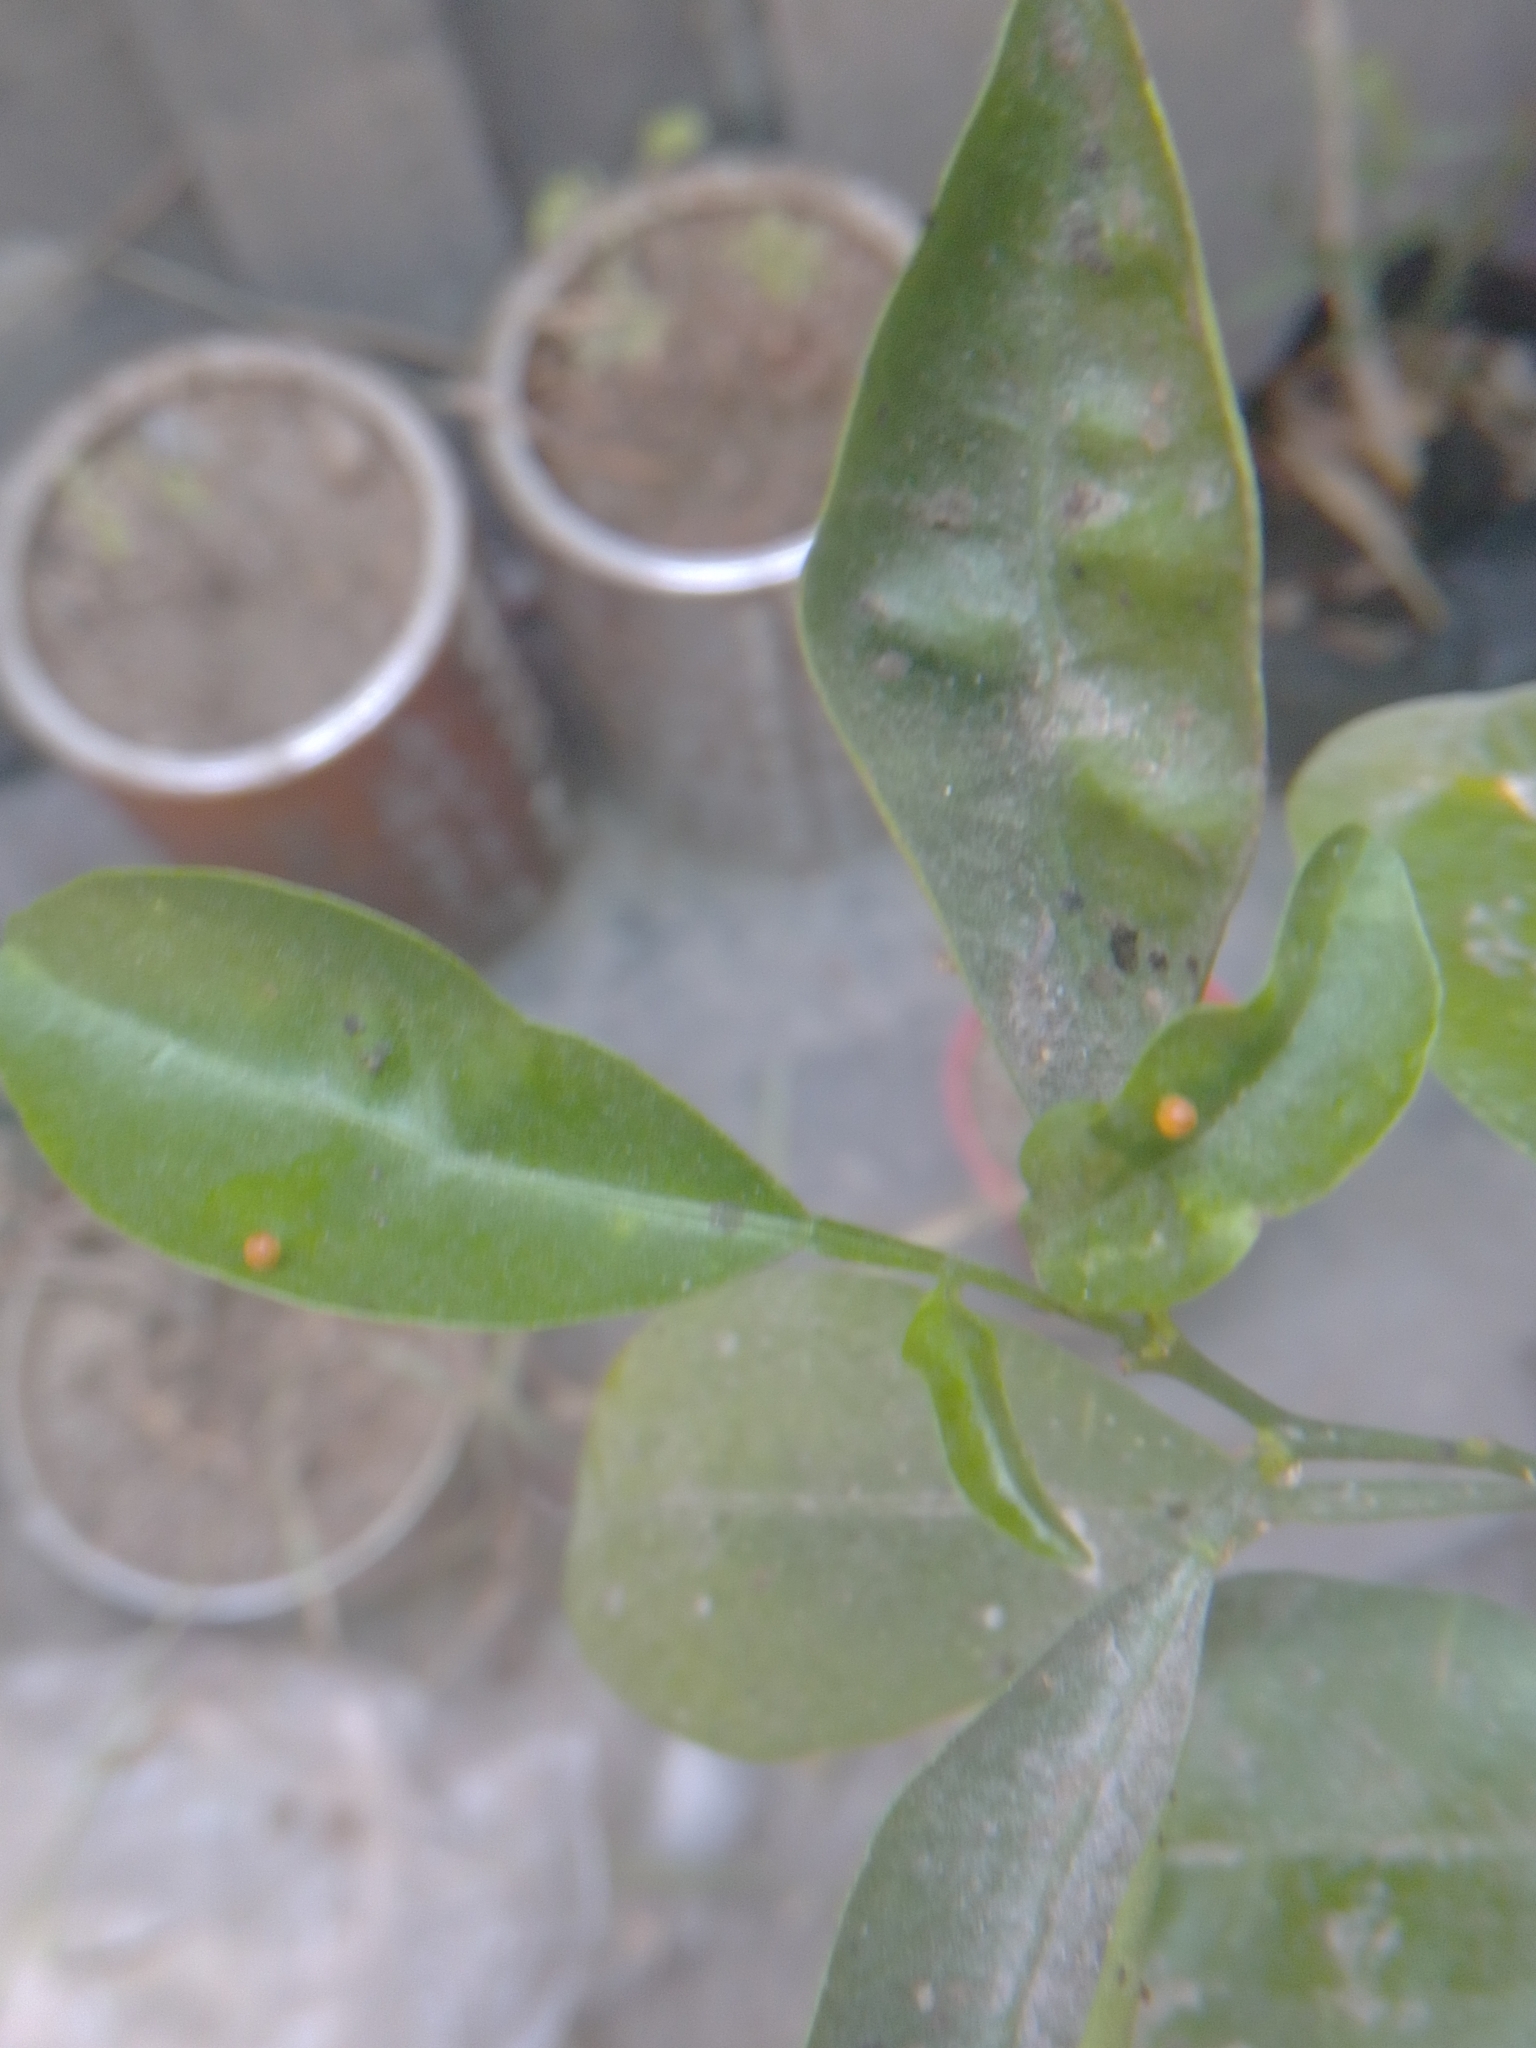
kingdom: Animalia
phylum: Arthropoda
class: Insecta
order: Lepidoptera
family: Papilionidae
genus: Papilio
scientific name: Papilio rumiko
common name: Western giant swallowtail
